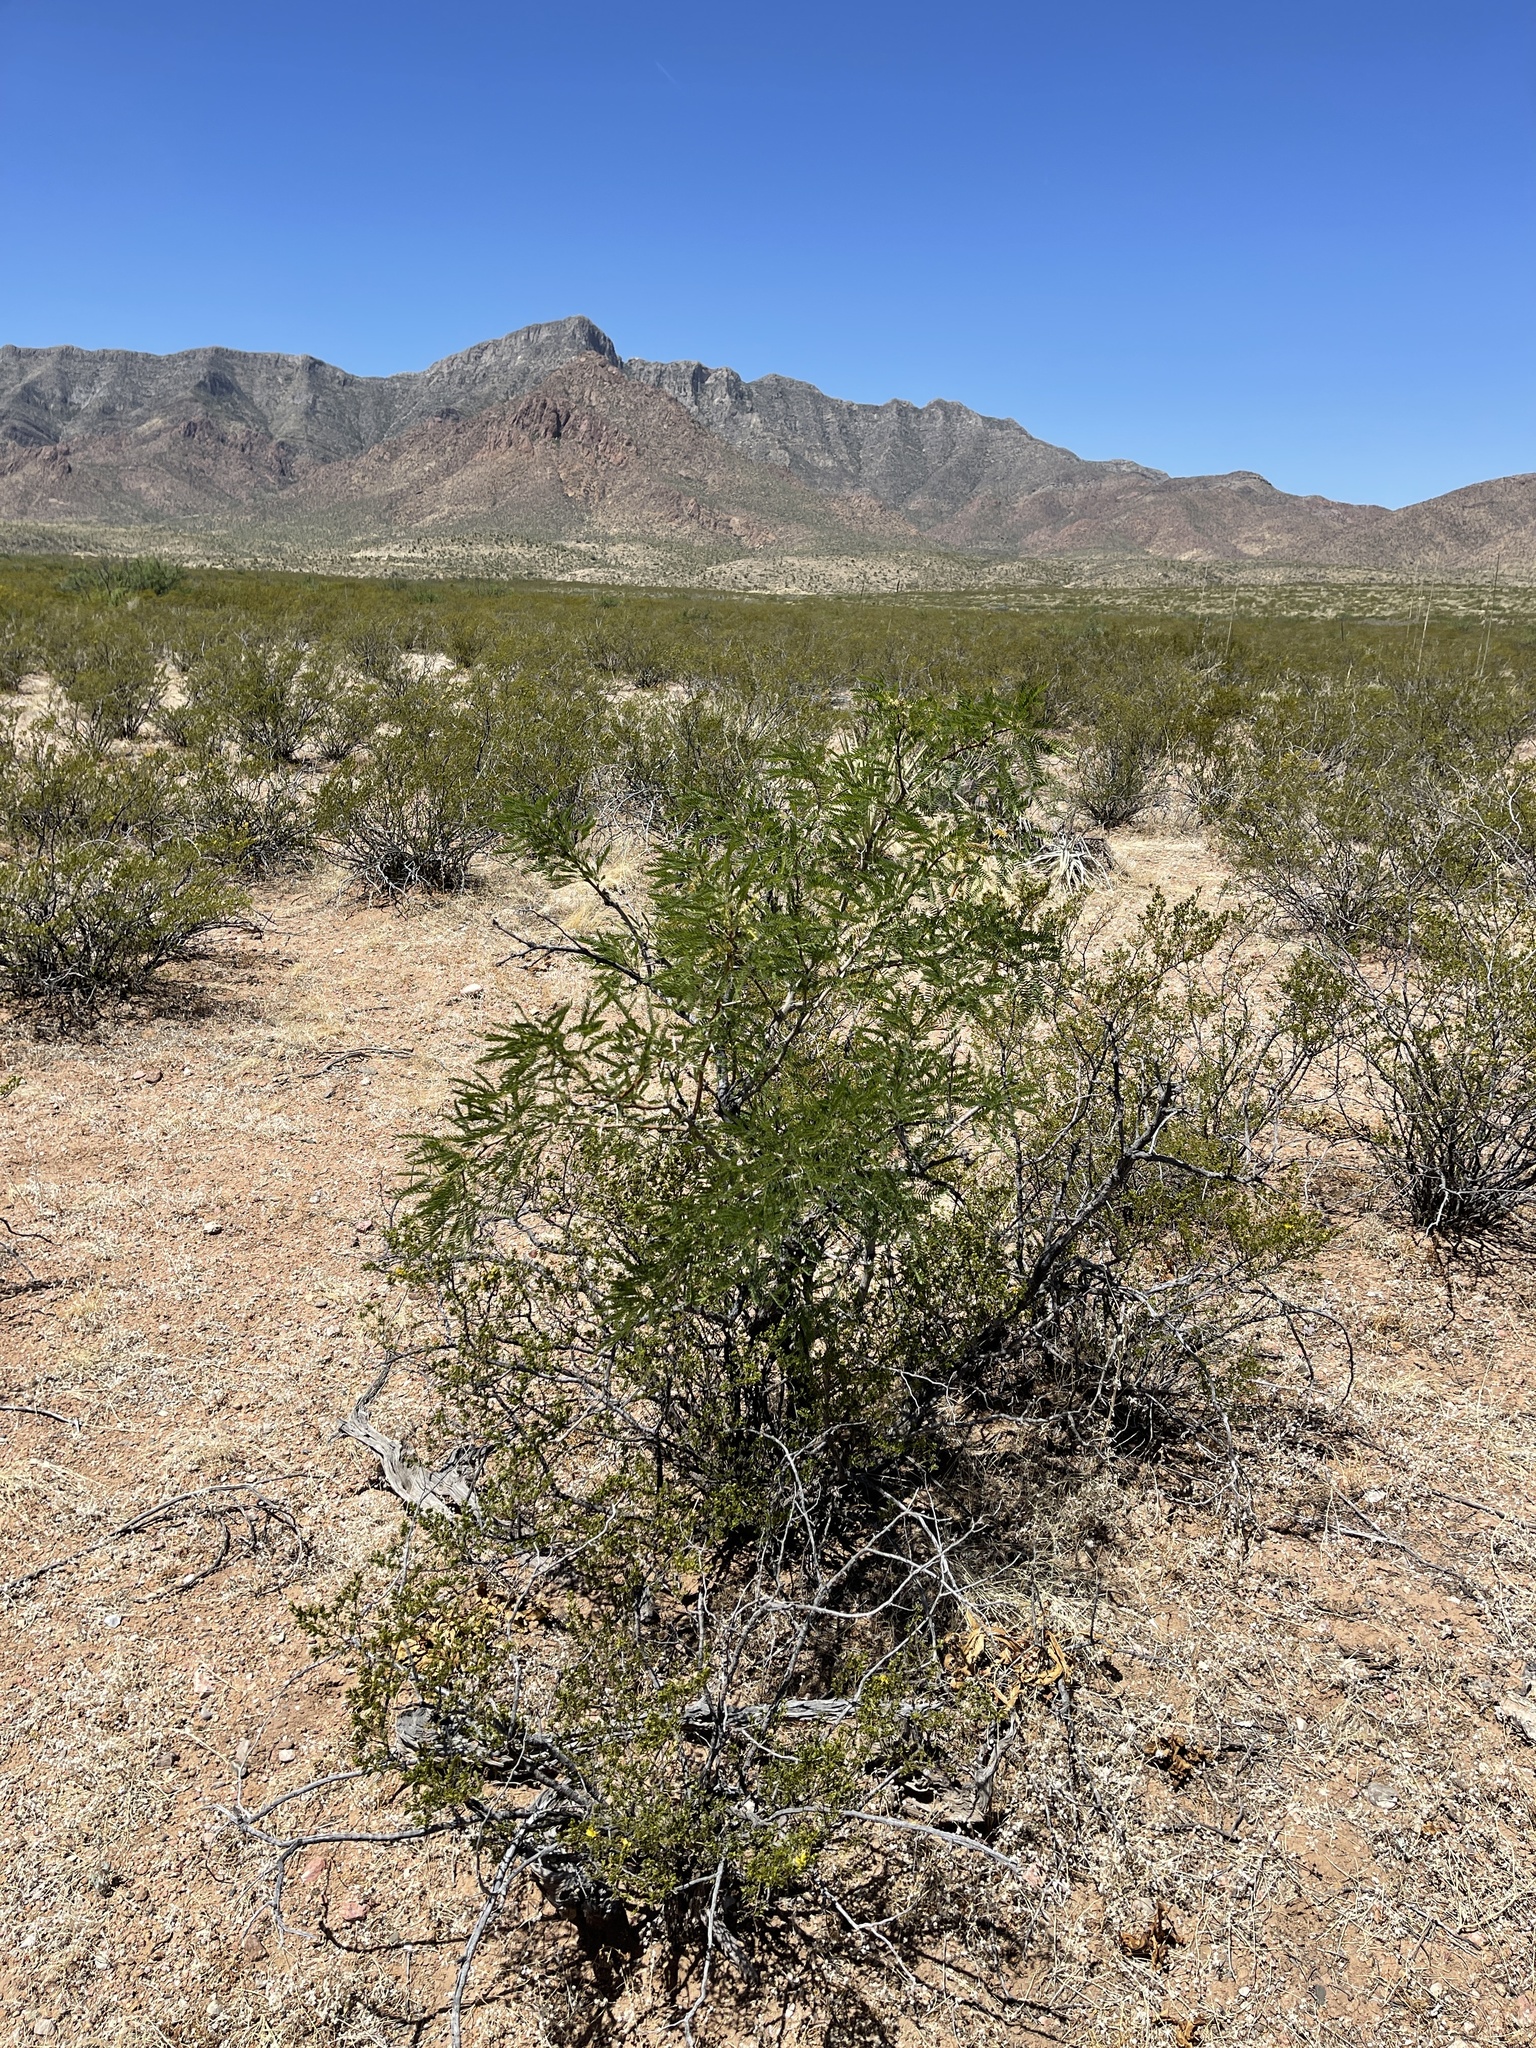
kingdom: Plantae
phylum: Tracheophyta
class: Magnoliopsida
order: Fabales
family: Fabaceae
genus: Prosopis
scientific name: Prosopis pubescens
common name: Screw-bean
